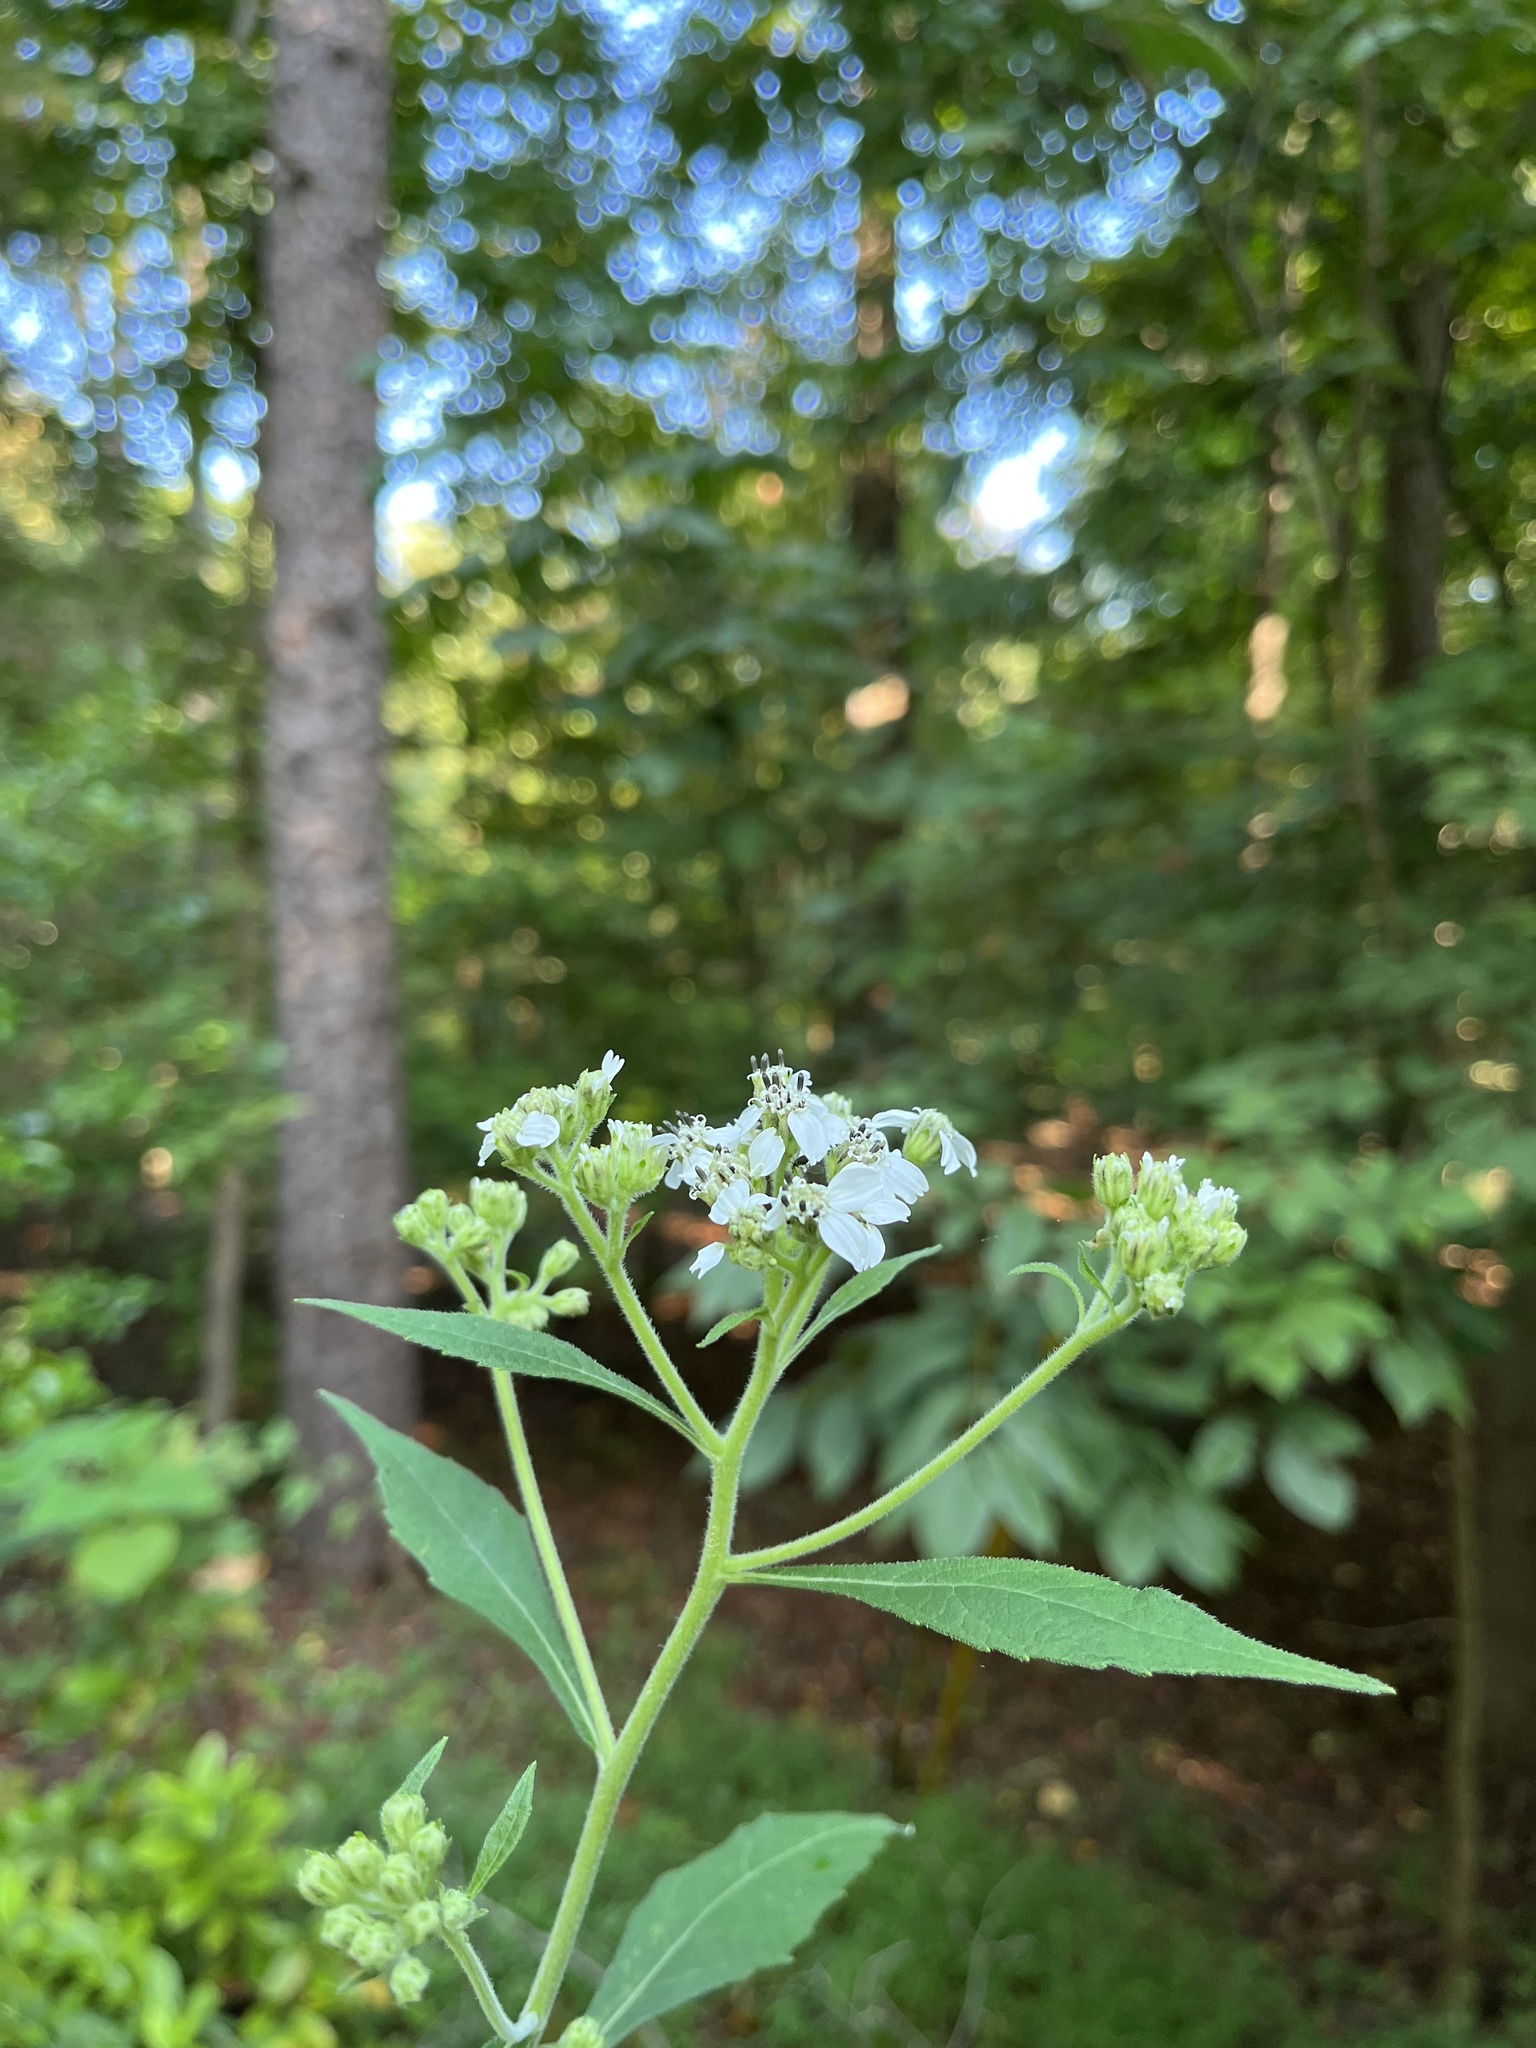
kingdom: Plantae
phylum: Tracheophyta
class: Magnoliopsida
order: Asterales
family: Asteraceae
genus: Verbesina
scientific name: Verbesina virginica
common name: Frostweed
